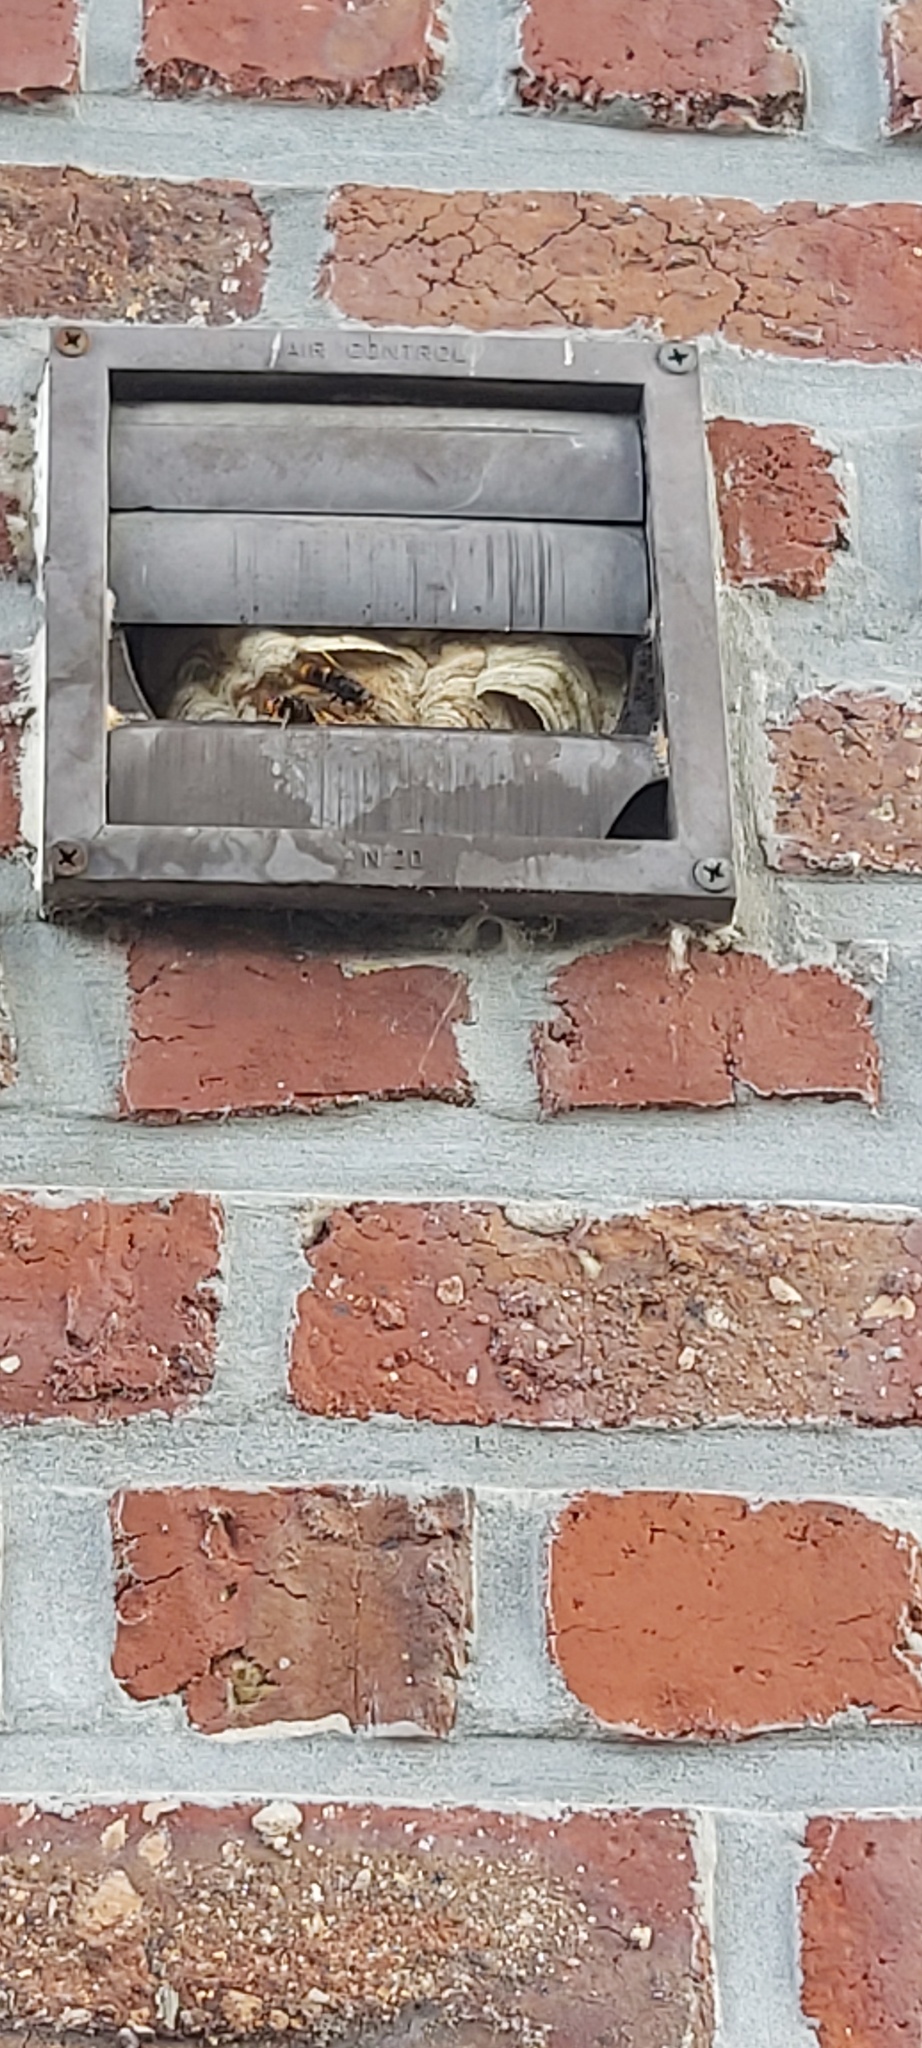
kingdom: Animalia
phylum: Arthropoda
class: Insecta
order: Hymenoptera
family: Vespidae
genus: Vespa
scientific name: Vespa velutina
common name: Asian hornet
